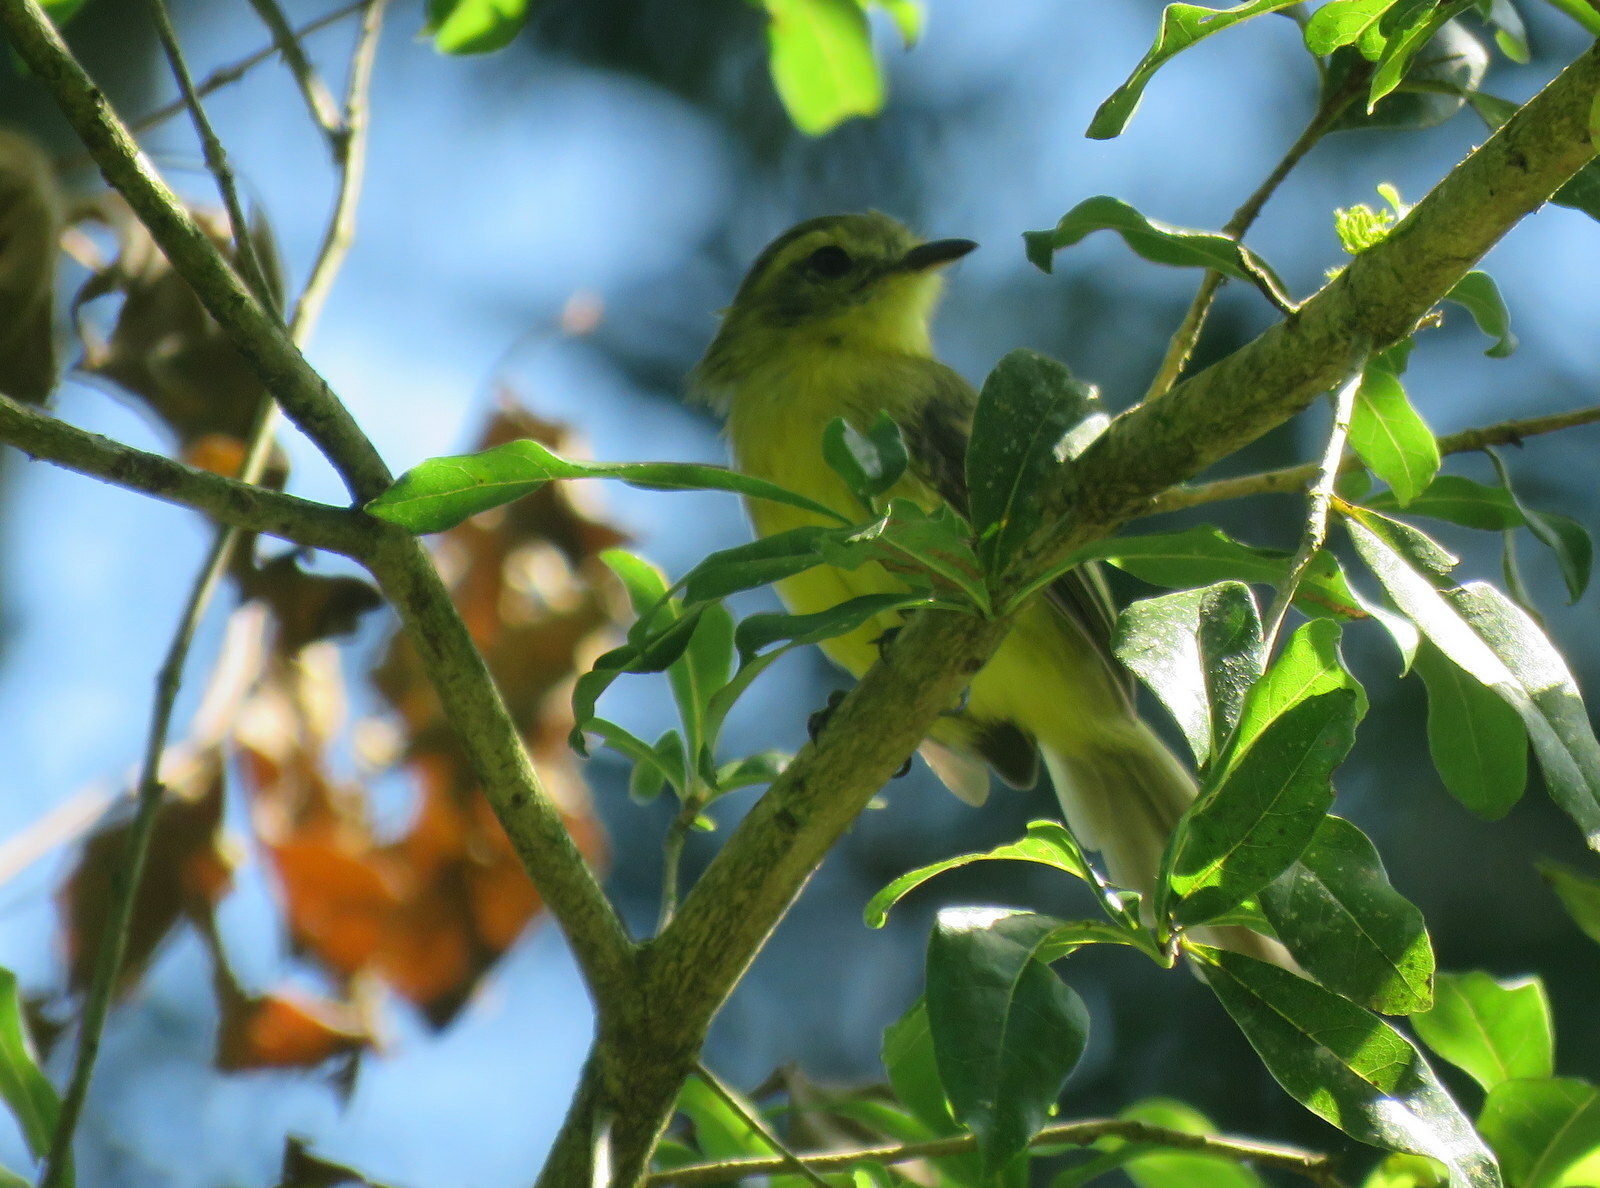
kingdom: Animalia
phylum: Chordata
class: Aves
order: Passeriformes
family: Tyrannidae
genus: Capsiempis
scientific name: Capsiempis flaveola
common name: Yellow tyrannulet
